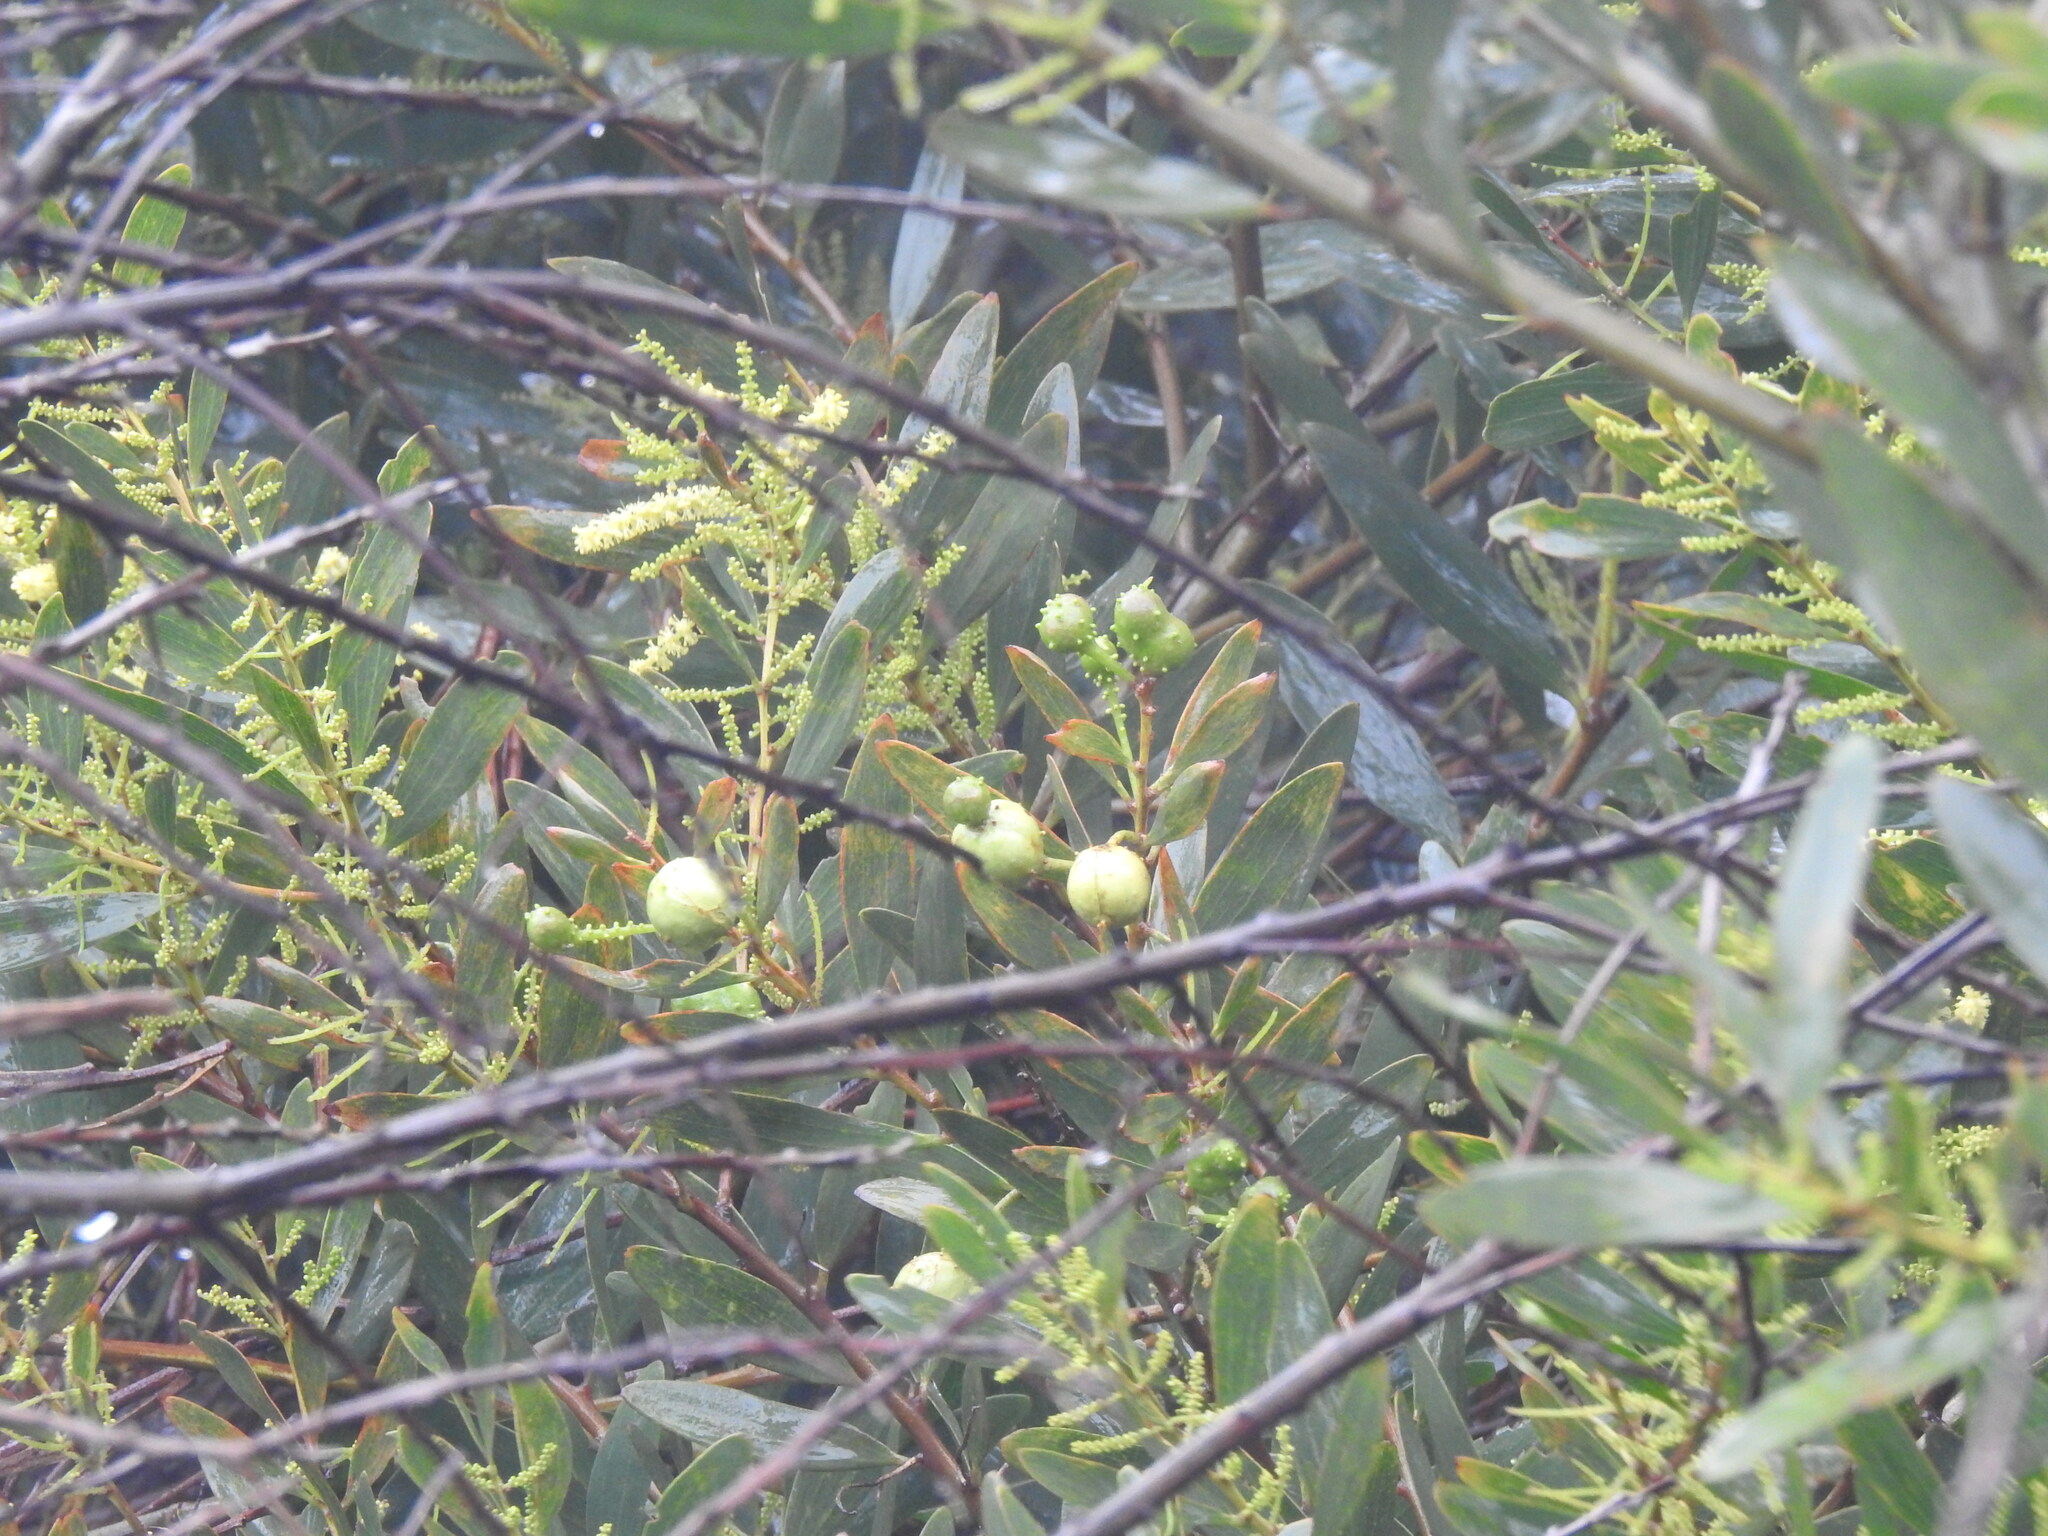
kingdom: Animalia
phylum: Arthropoda
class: Insecta
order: Hymenoptera
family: Pteromalidae
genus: Trichilogaster
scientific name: Trichilogaster acaciaelongifoliae
